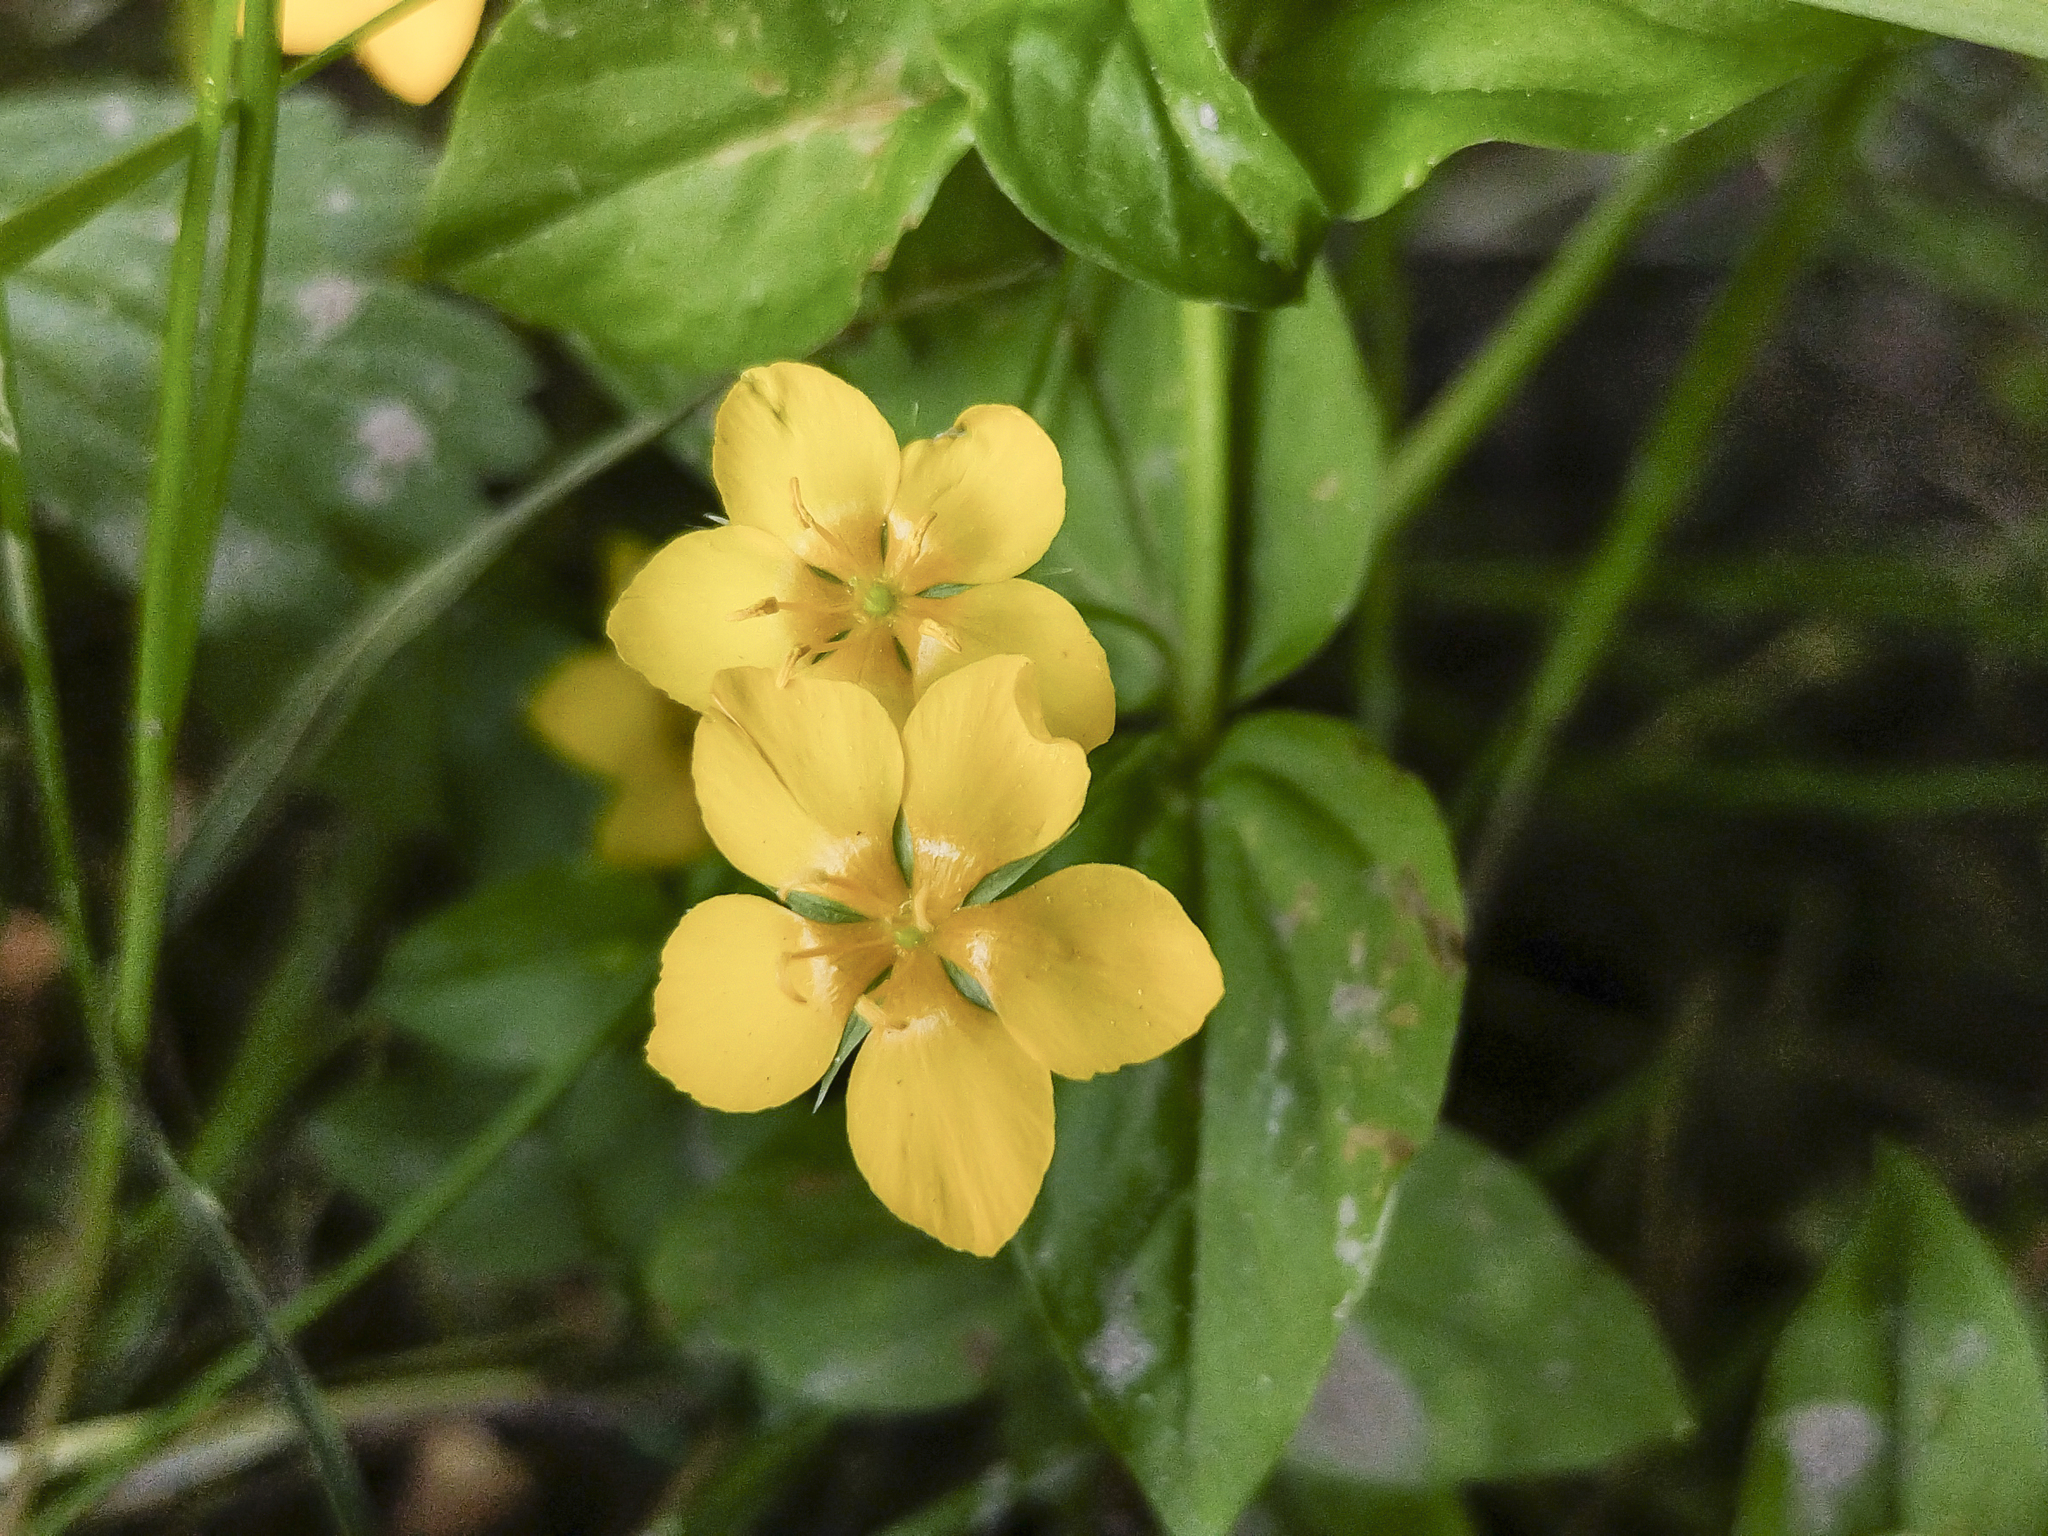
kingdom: Plantae
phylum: Tracheophyta
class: Magnoliopsida
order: Ericales
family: Primulaceae
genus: Lysimachia
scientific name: Lysimachia nemorum
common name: Yellow pimpernel
